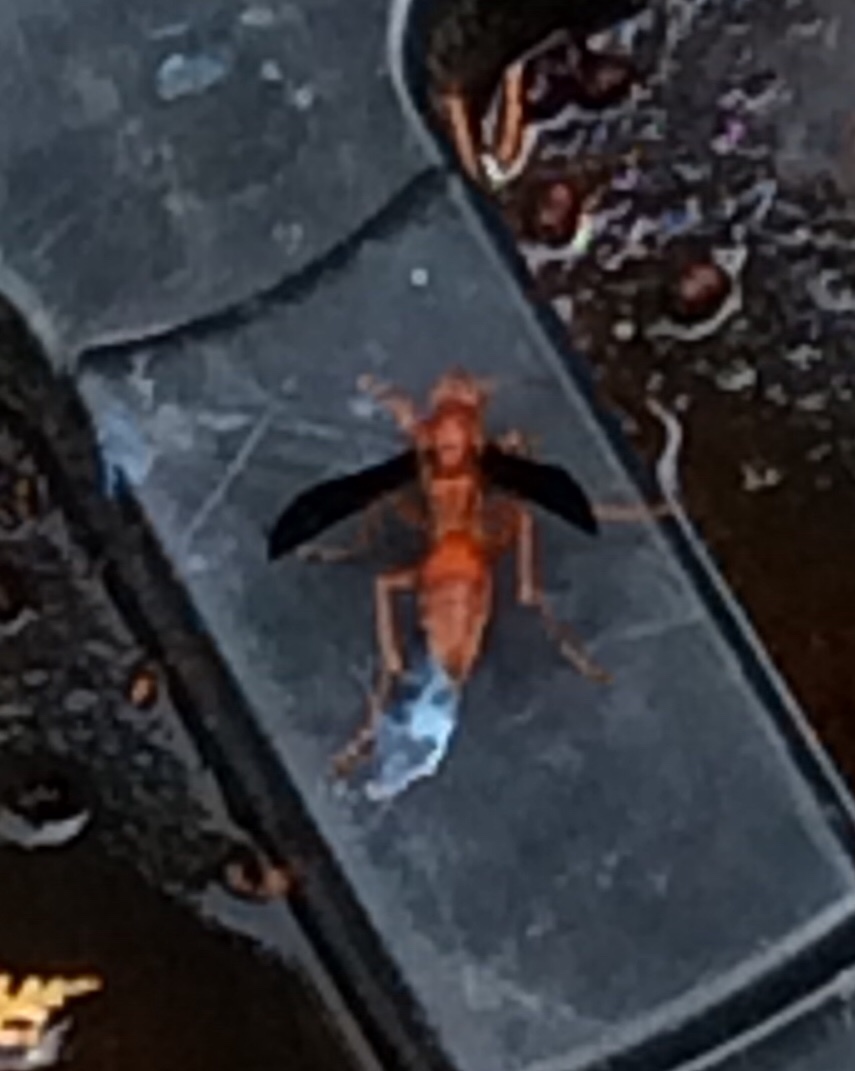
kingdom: Animalia
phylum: Arthropoda
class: Insecta
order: Hymenoptera
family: Vespidae
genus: Fuscopolistes
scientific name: Fuscopolistes
